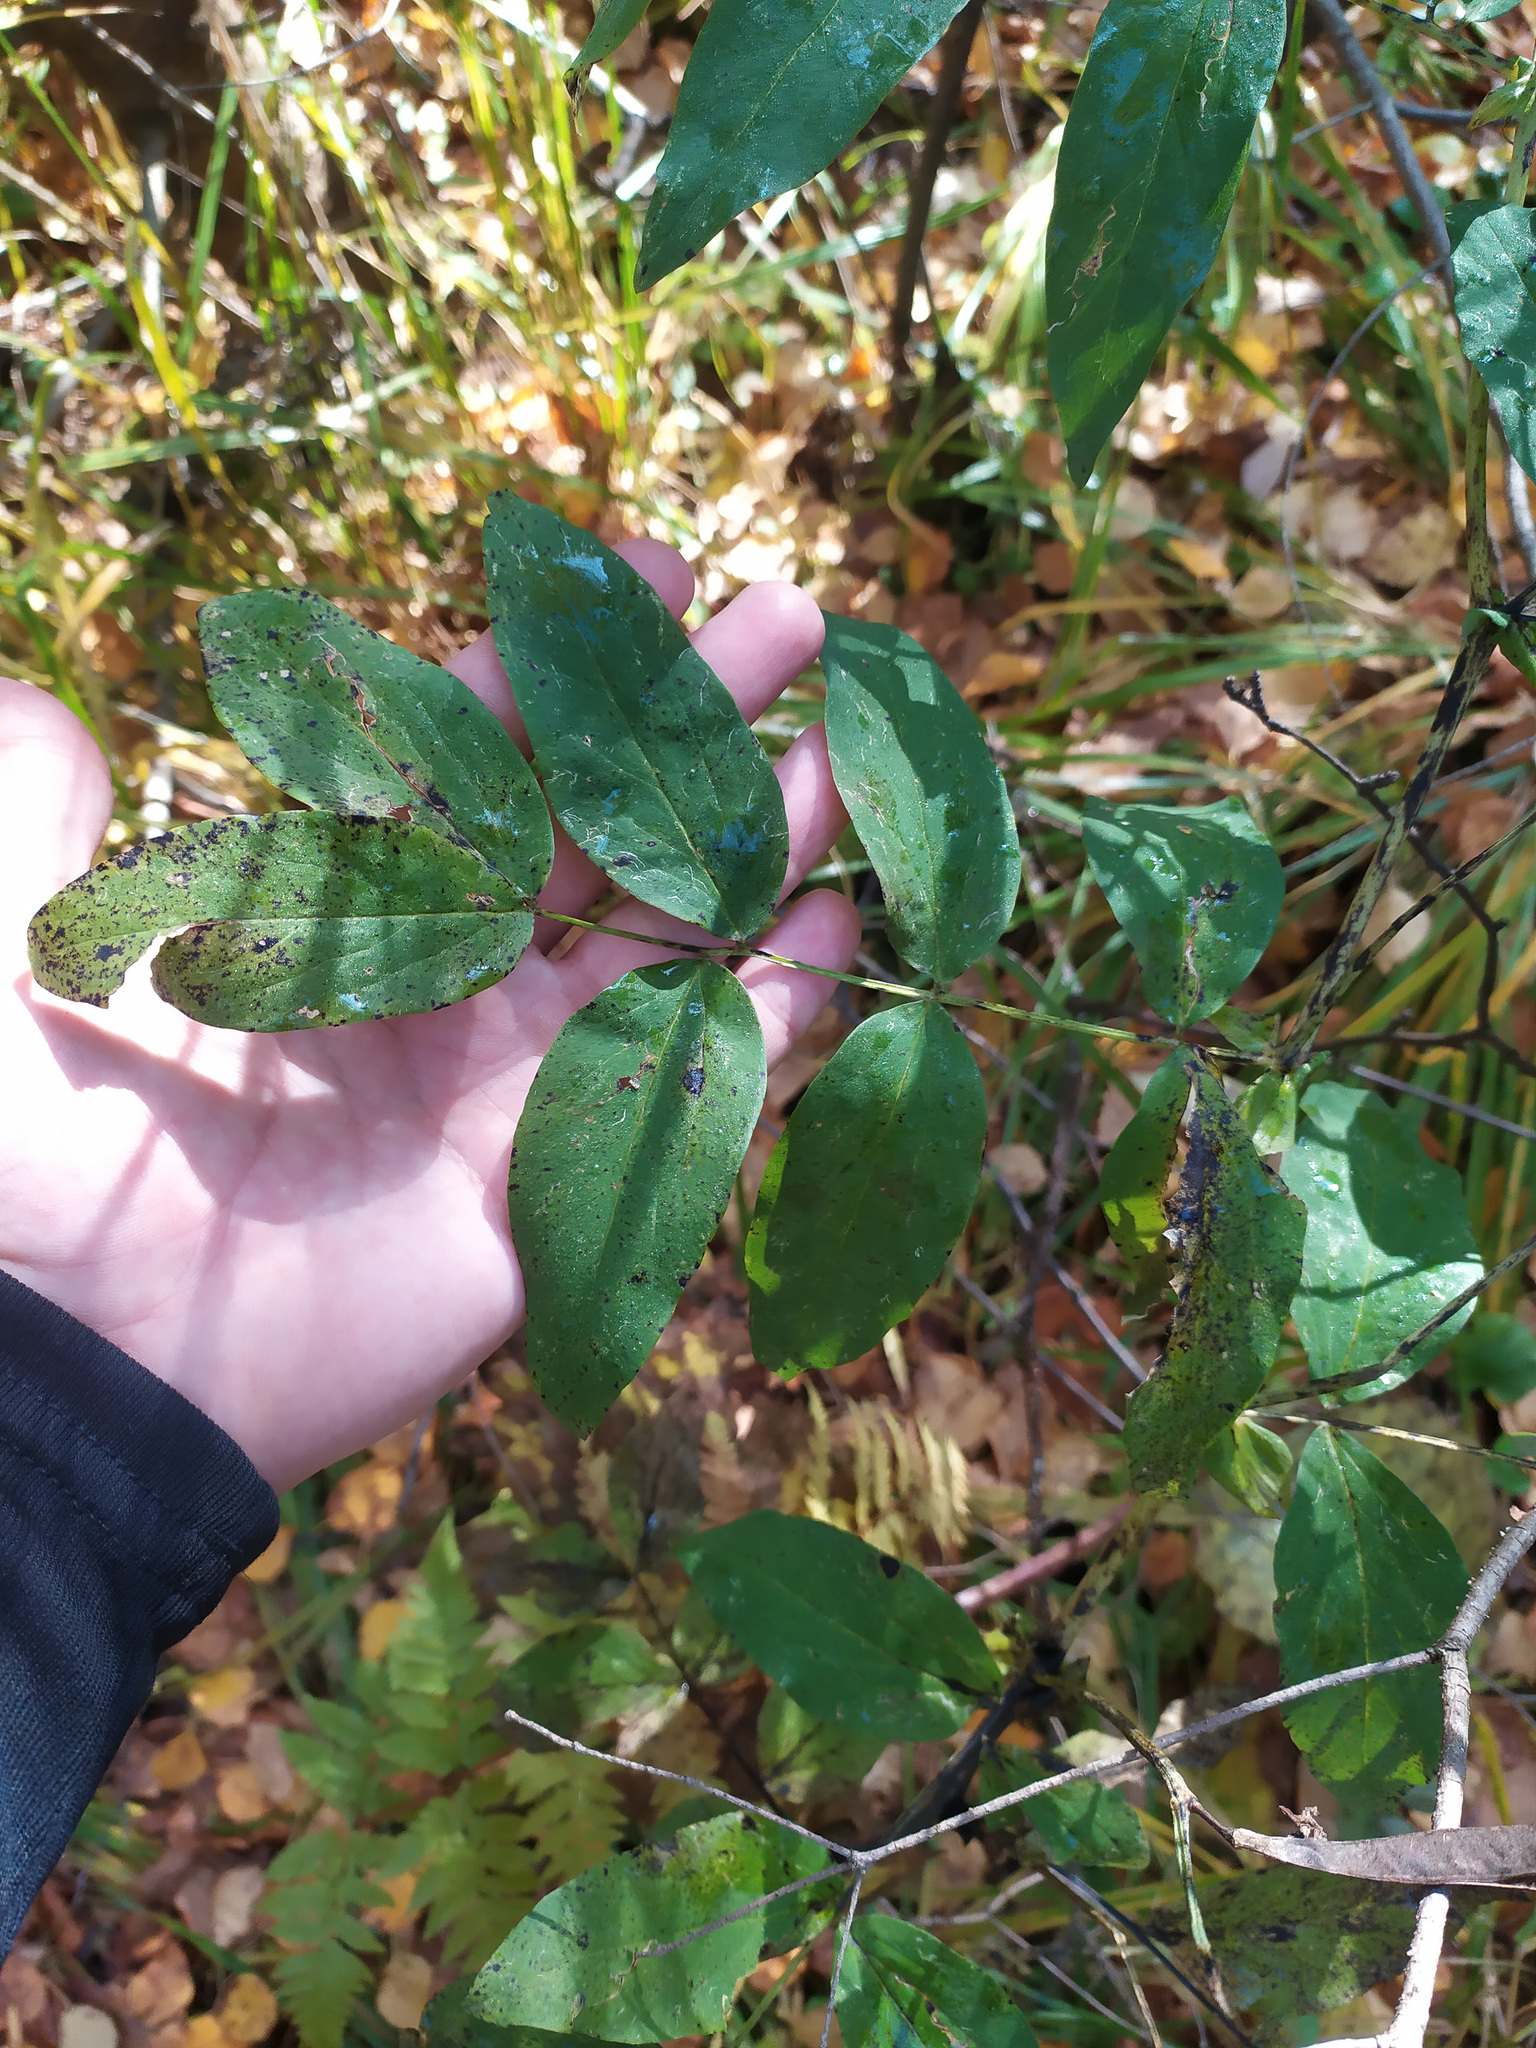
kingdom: Plantae
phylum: Tracheophyta
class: Magnoliopsida
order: Fabales
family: Fabaceae
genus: Lathyrus
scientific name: Lathyrus gmelinii
